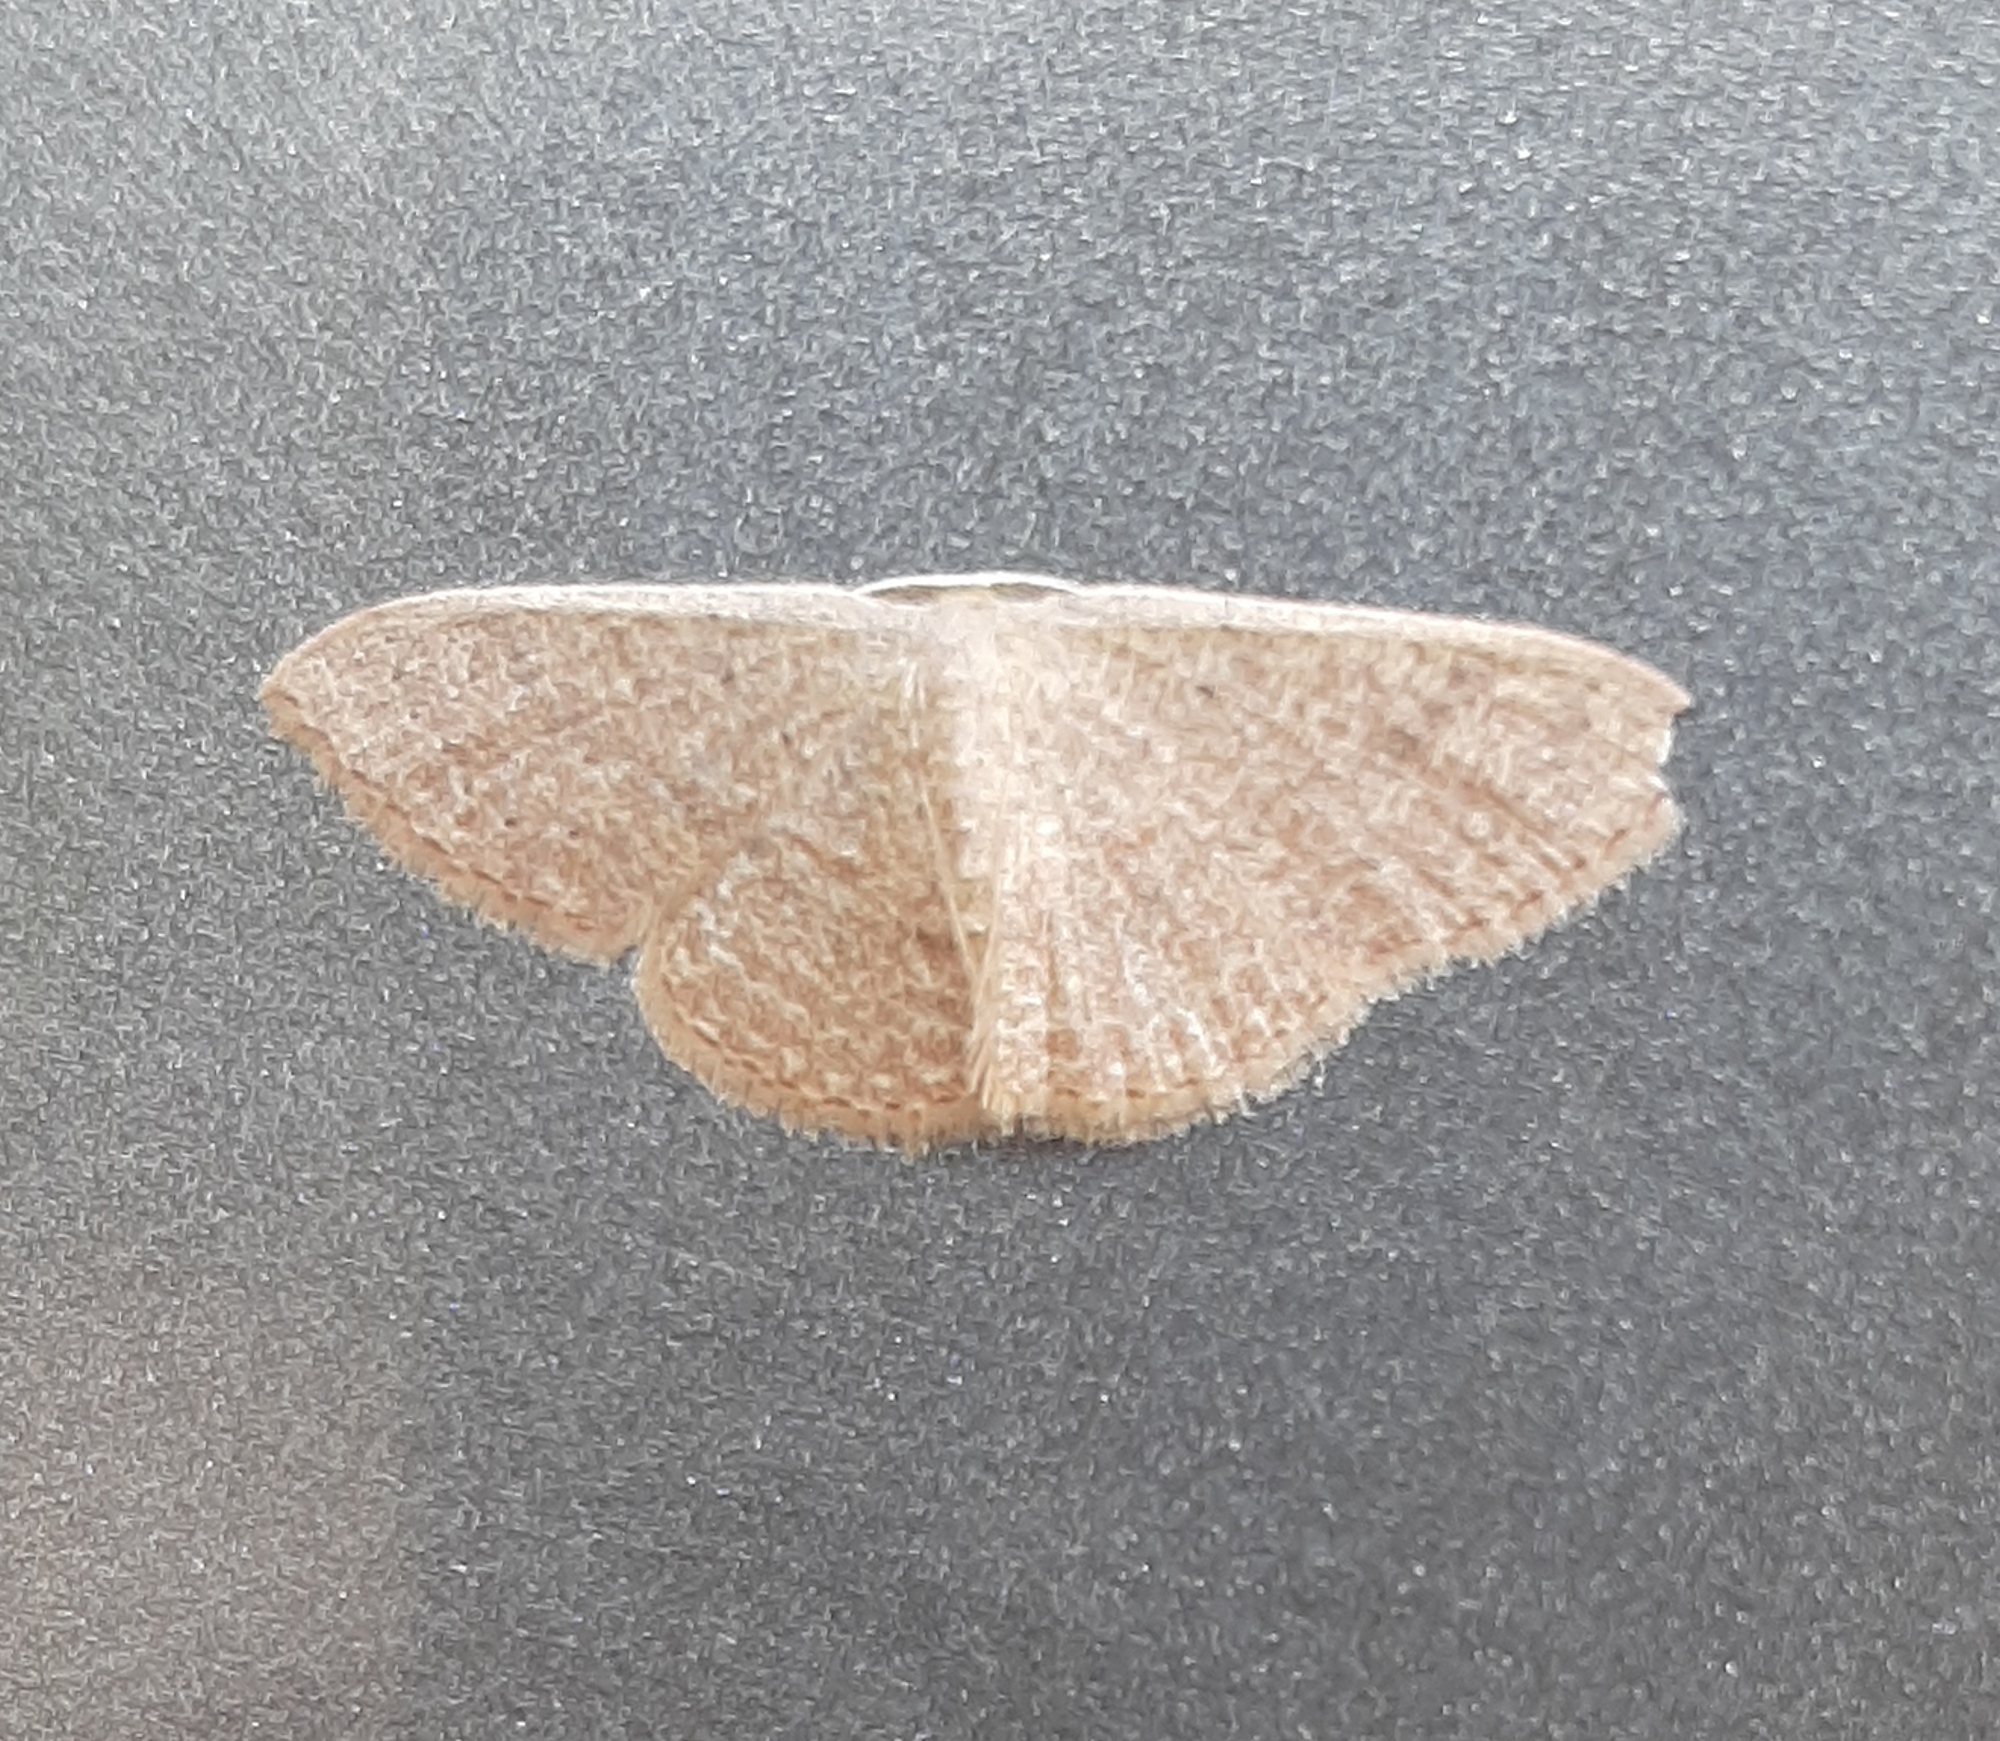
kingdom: Animalia
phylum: Arthropoda
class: Insecta
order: Lepidoptera
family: Geometridae
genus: Pleuroprucha
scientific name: Pleuroprucha insulsaria
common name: Common tan wave
